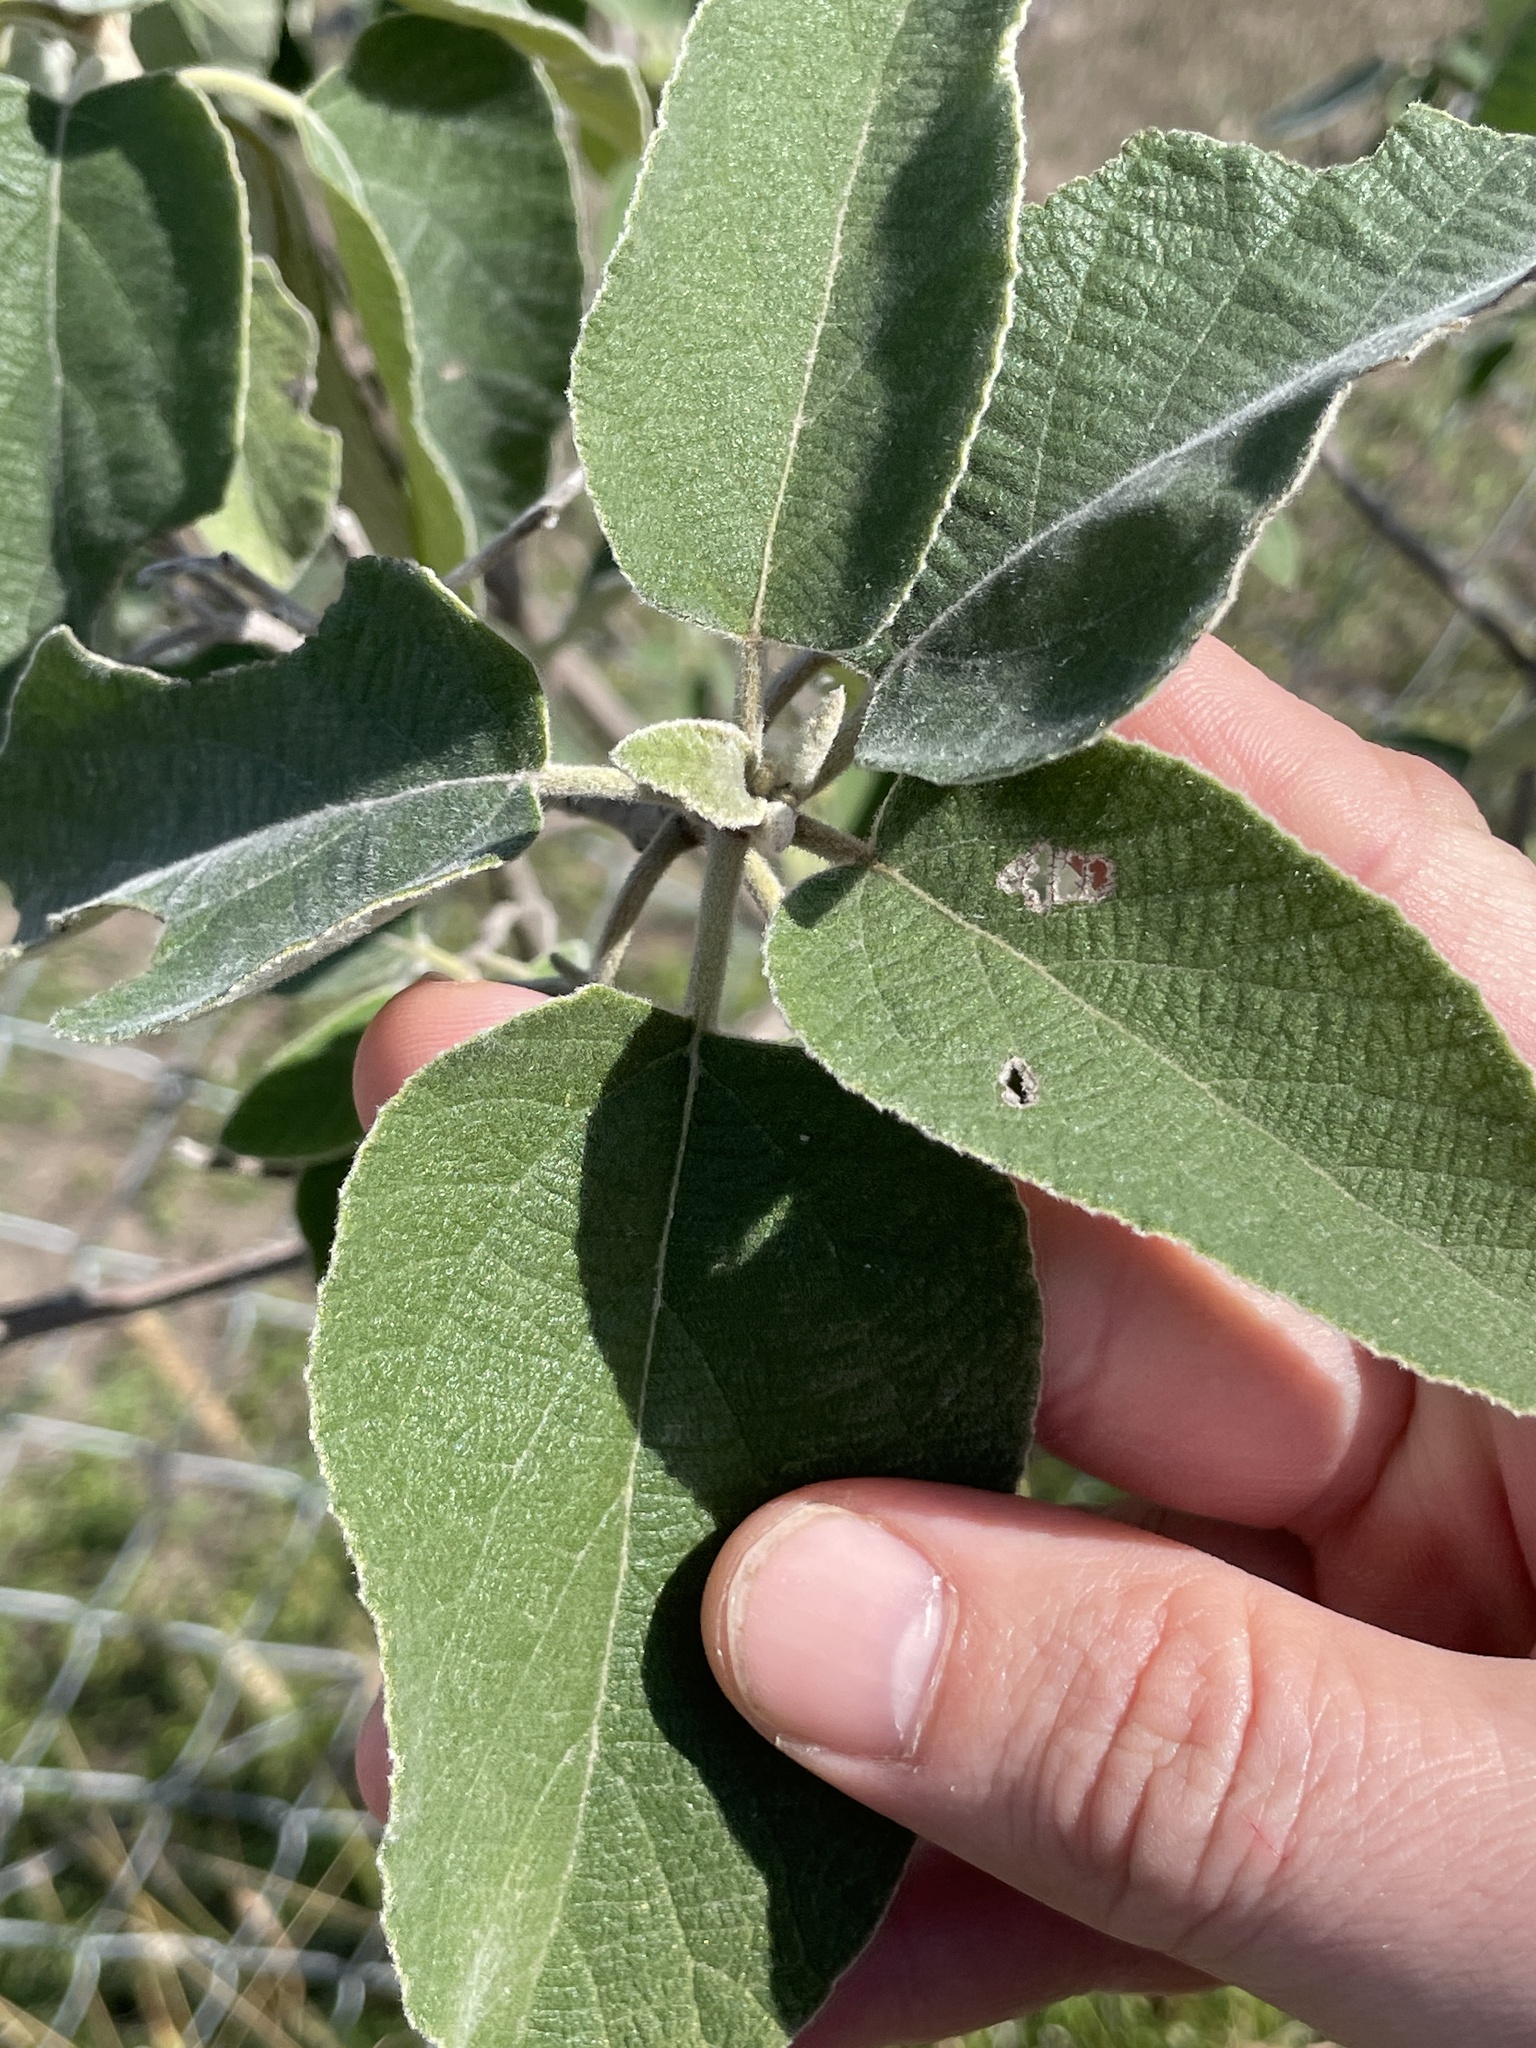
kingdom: Plantae
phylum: Tracheophyta
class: Magnoliopsida
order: Boraginales
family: Cordiaceae
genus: Cordia
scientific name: Cordia boissieri
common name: Mexican-olive
